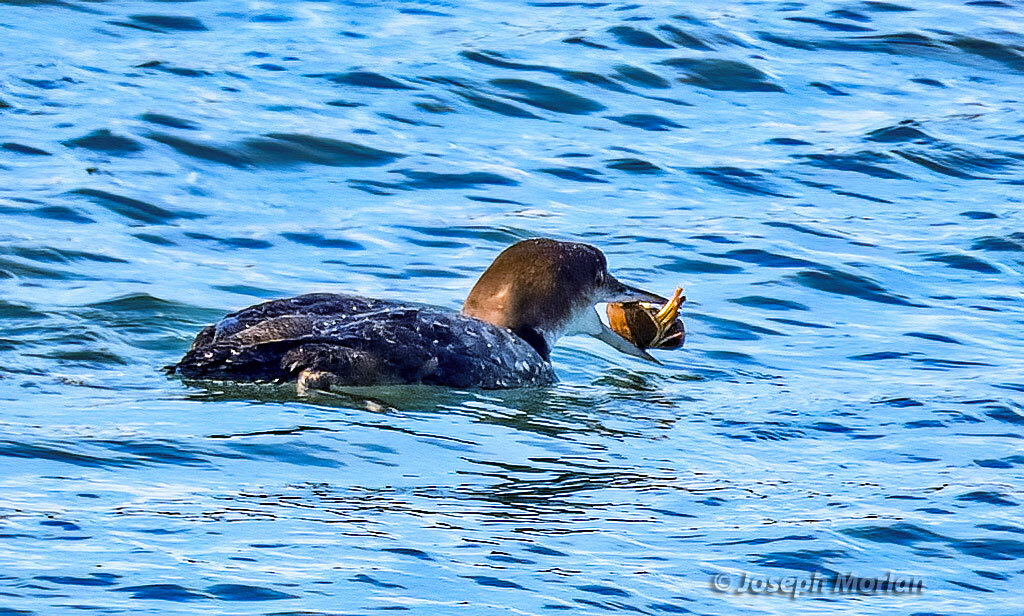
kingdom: Animalia
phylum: Chordata
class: Aves
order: Gaviiformes
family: Gaviidae
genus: Gavia
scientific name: Gavia immer
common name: Common loon
